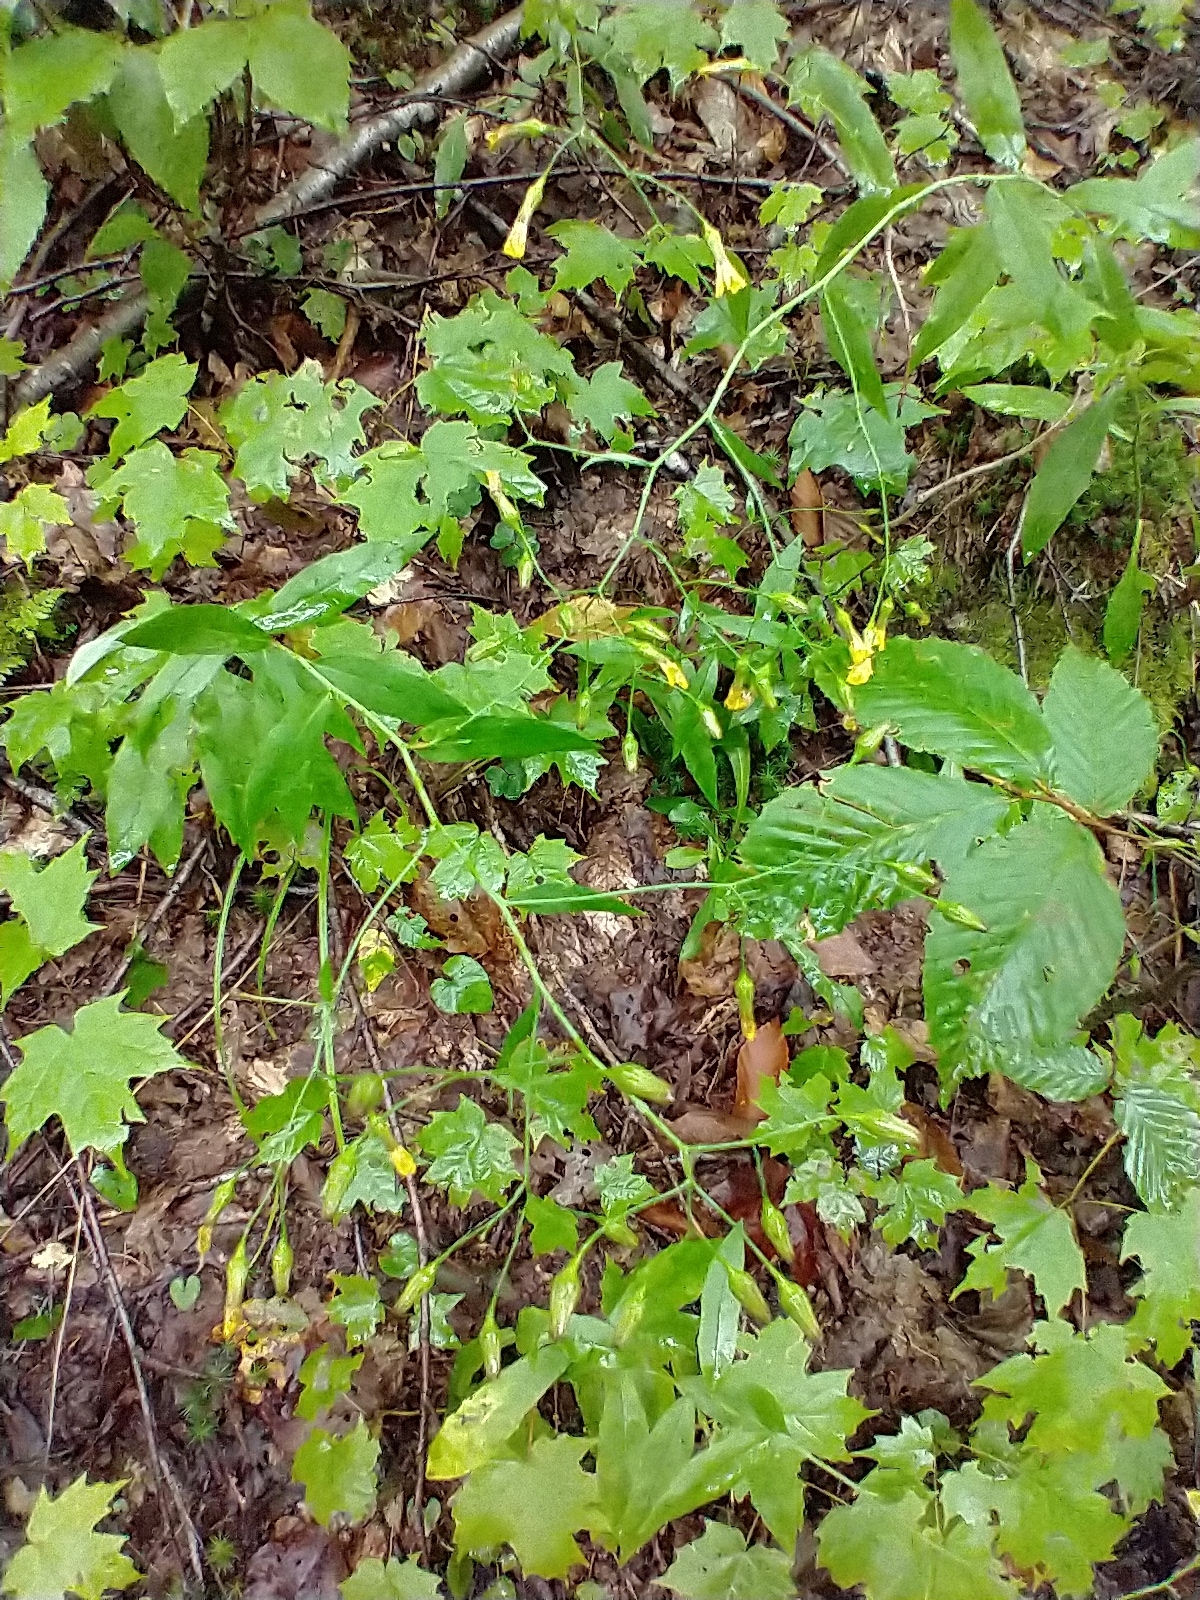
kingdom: Plantae
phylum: Tracheophyta
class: Magnoliopsida
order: Asterales
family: Asteraceae
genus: Hieracium
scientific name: Hieracium paniculatum
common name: Allegheny hawkweed
